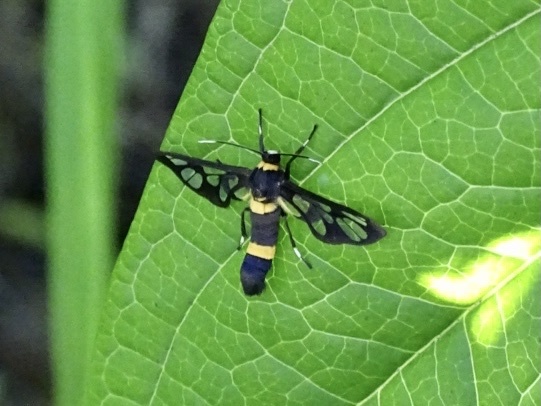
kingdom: Animalia
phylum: Arthropoda
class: Insecta
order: Lepidoptera
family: Erebidae
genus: Syntomoides
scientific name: Syntomoides imaon
